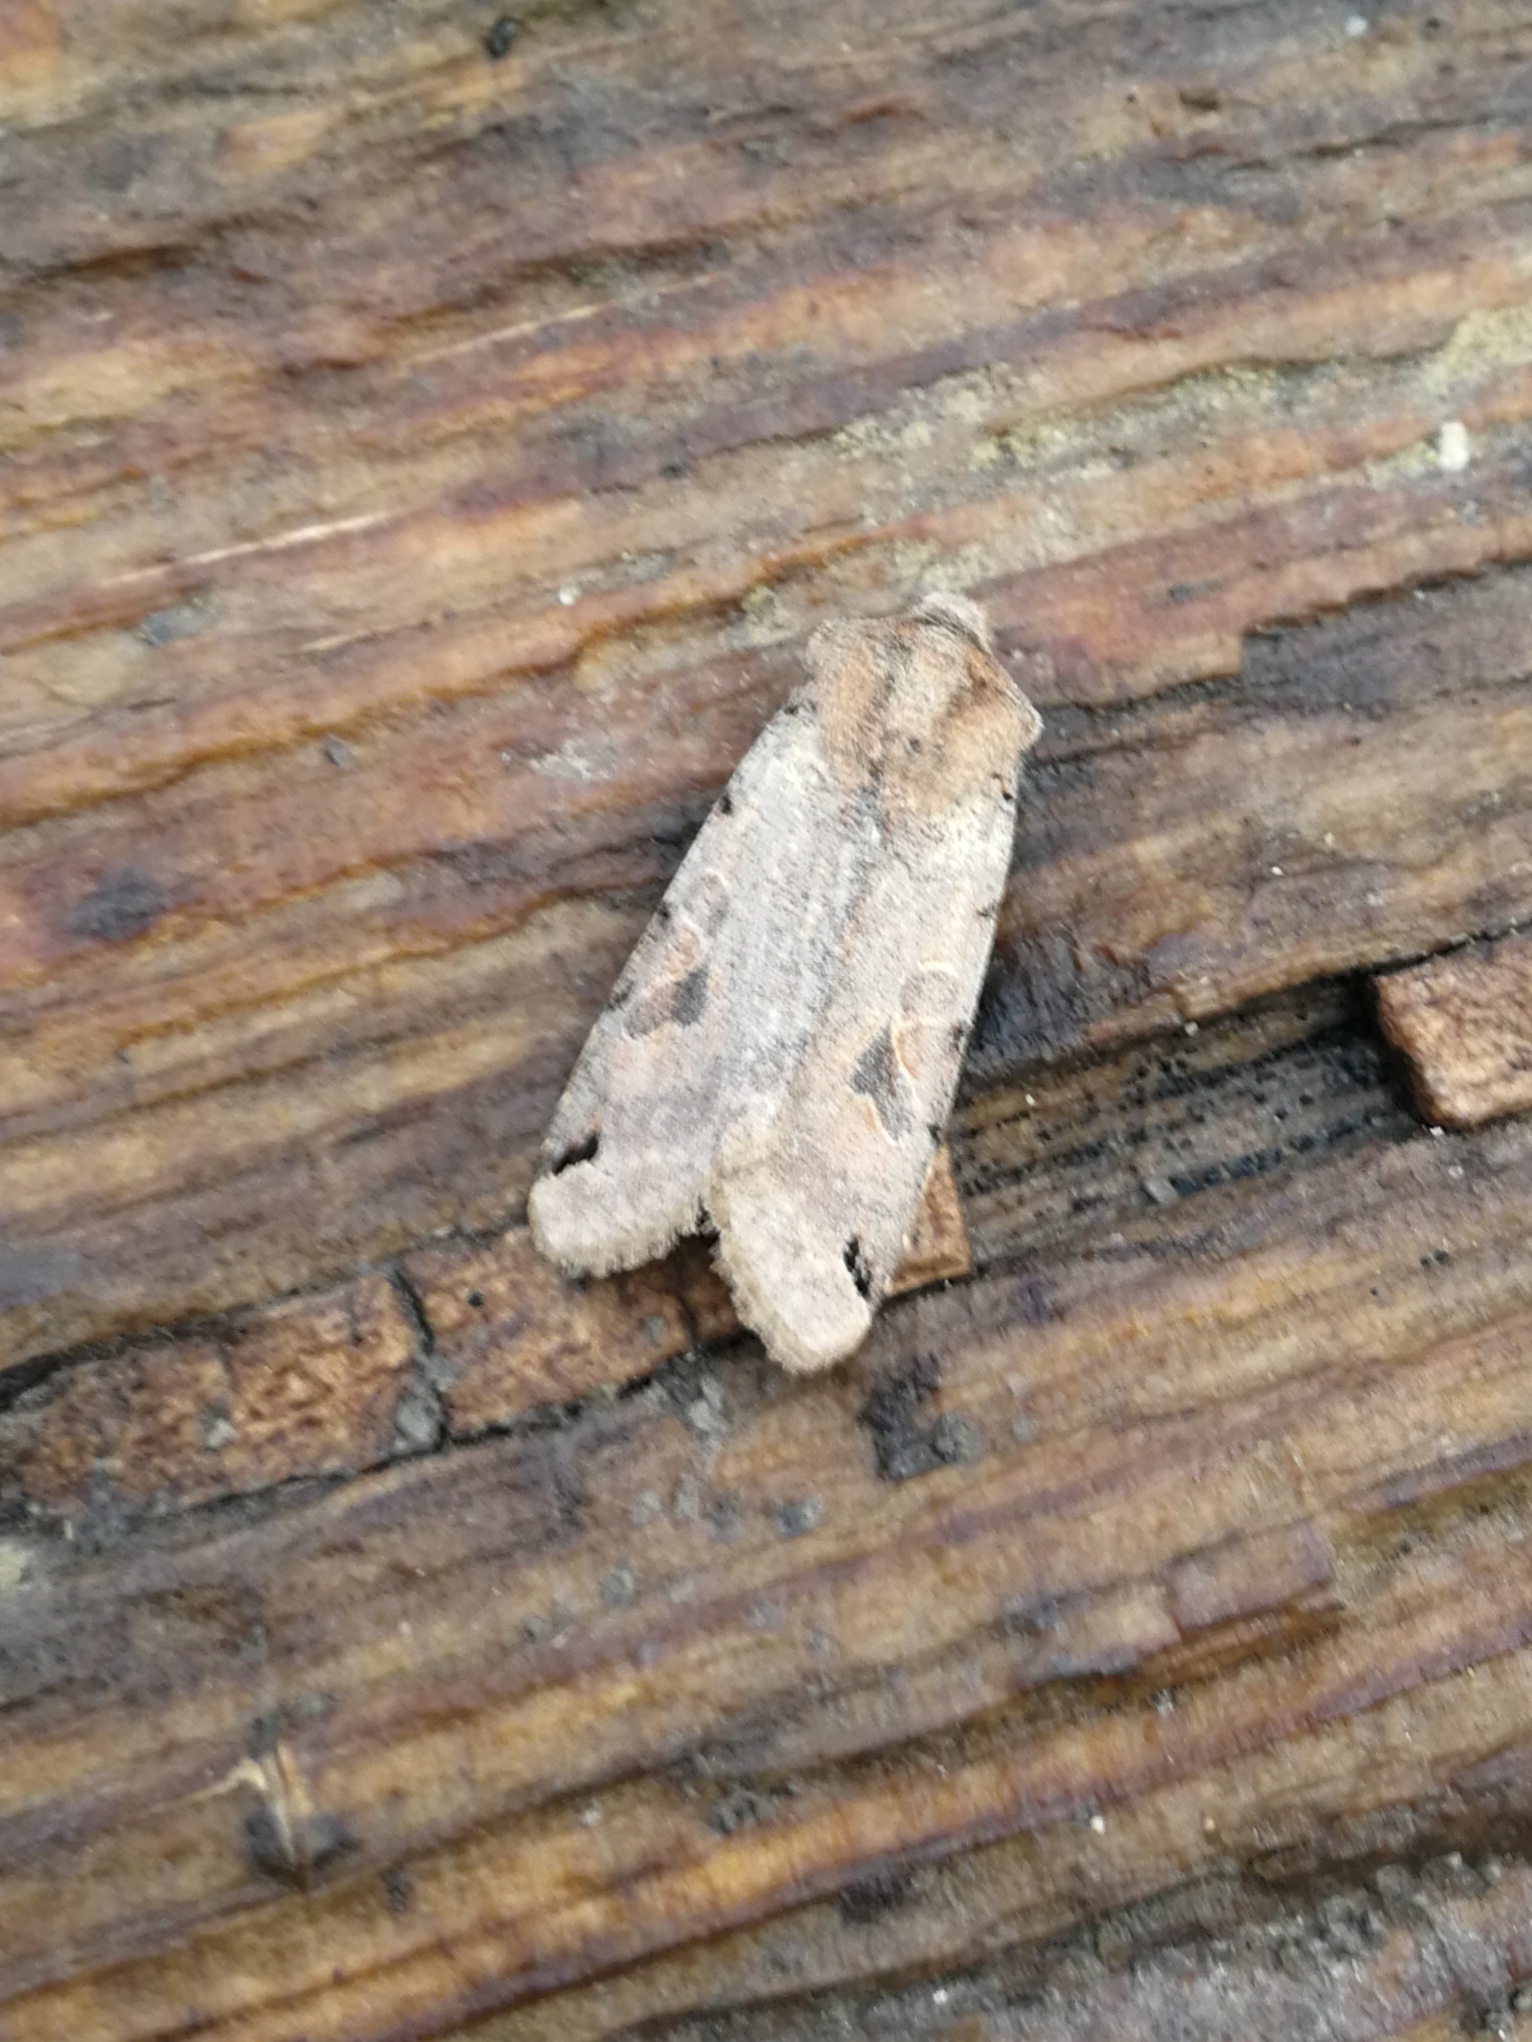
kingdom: Animalia
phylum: Arthropoda
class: Insecta
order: Lepidoptera
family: Noctuidae
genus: Agrochola
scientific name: Agrochola litura
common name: Brown-spot pinion
